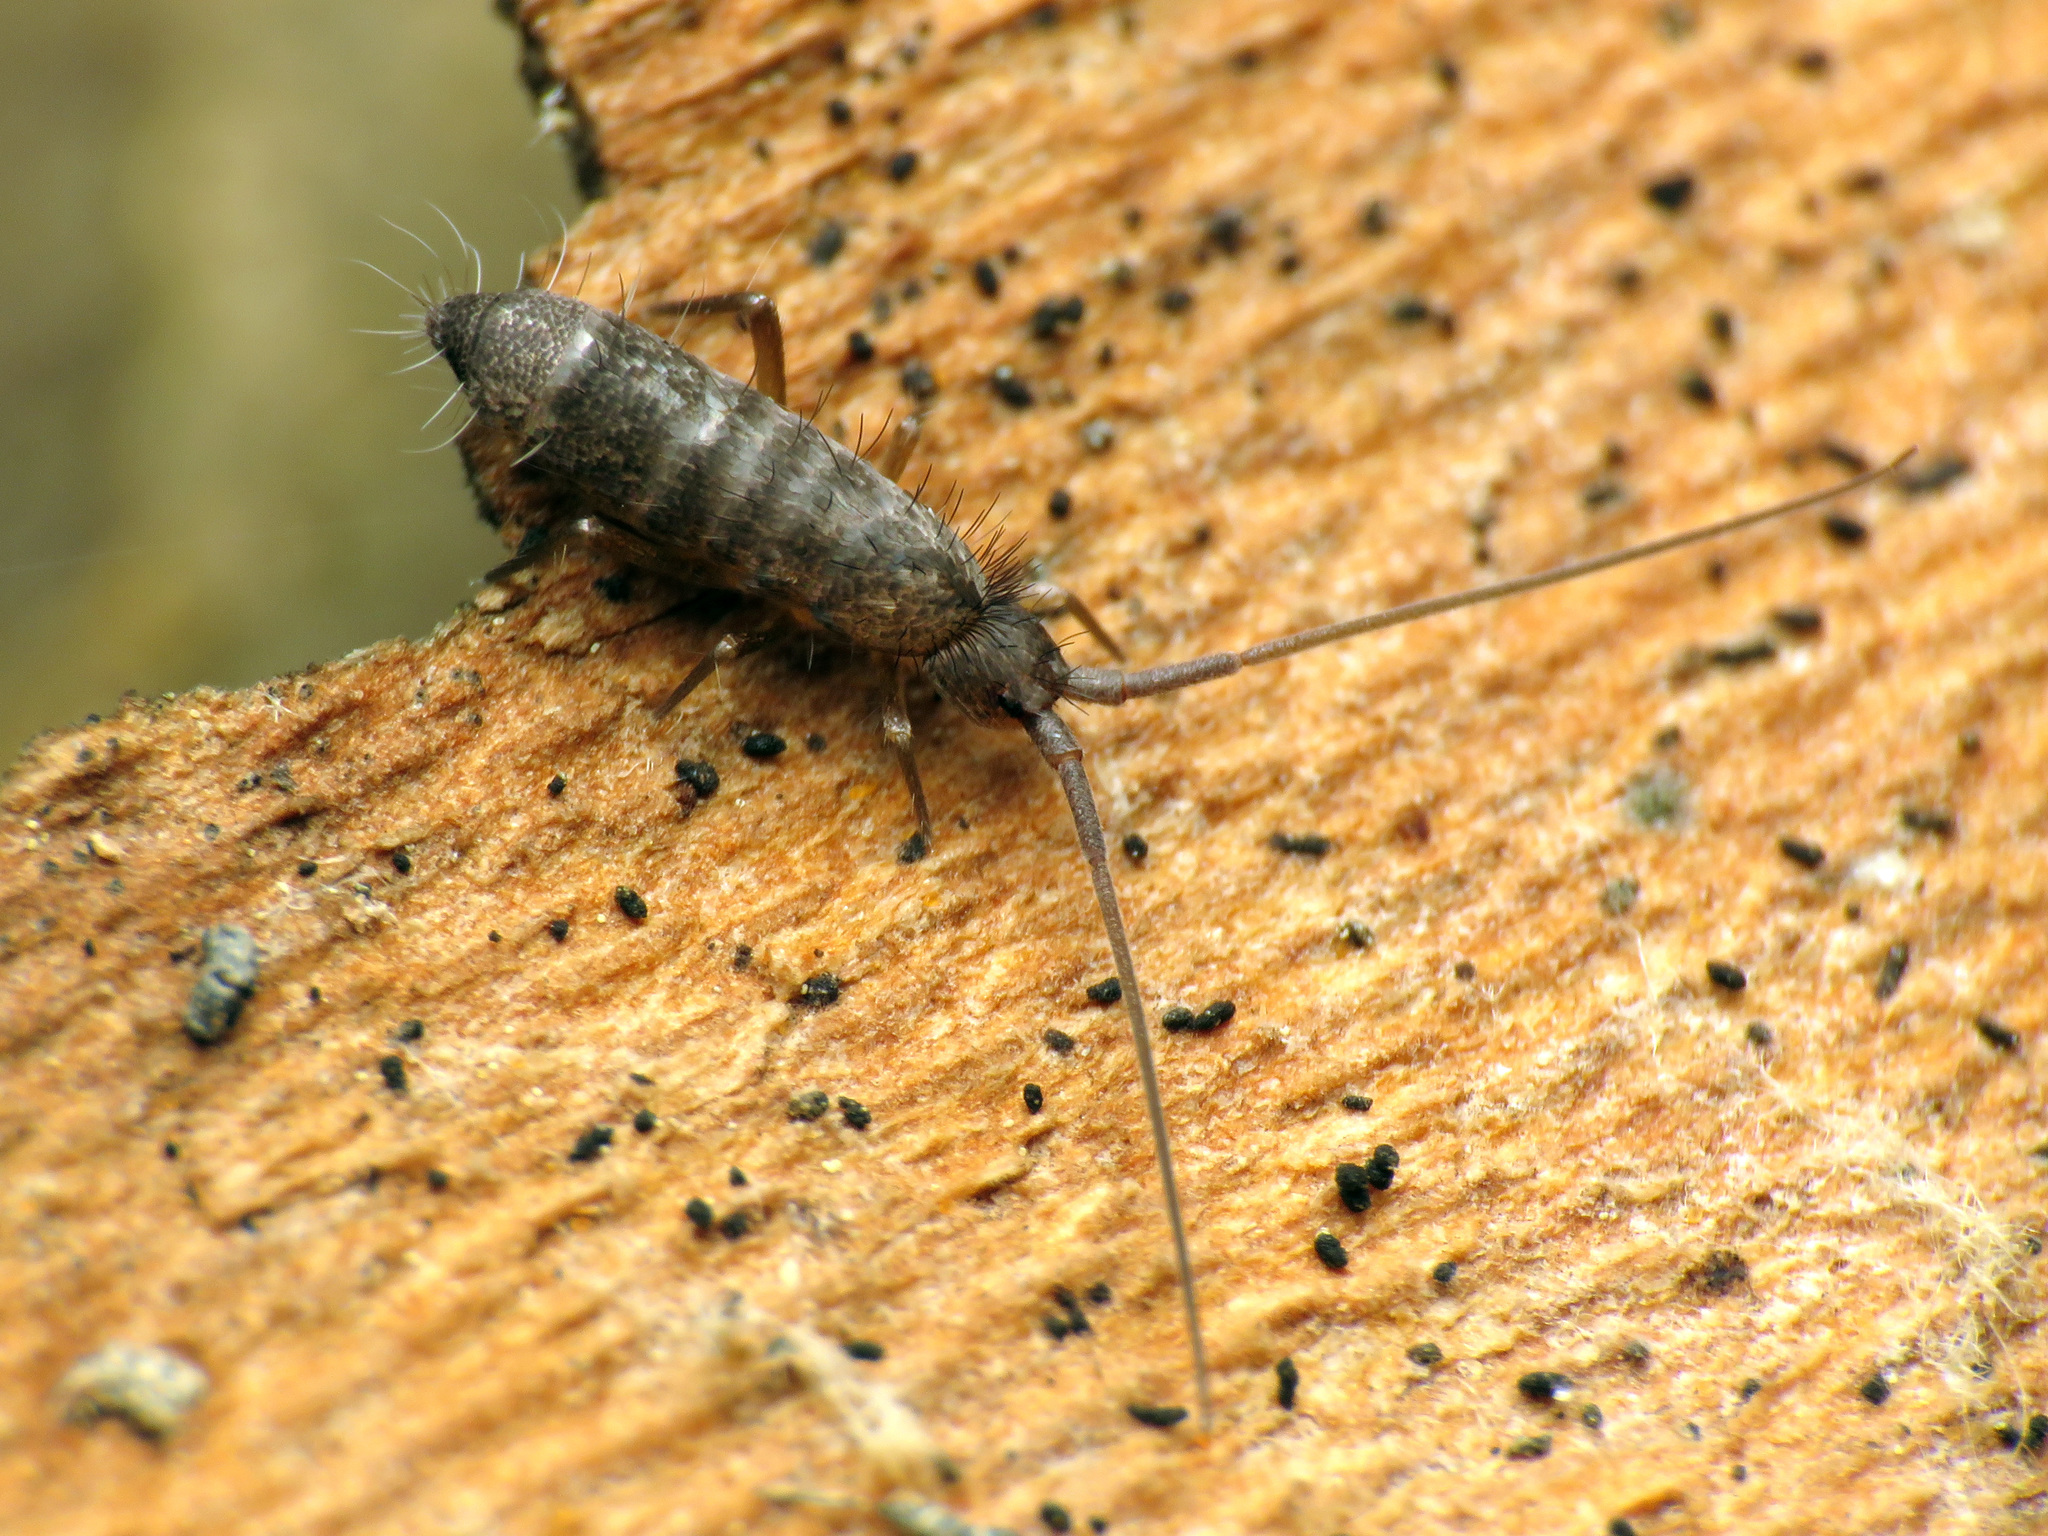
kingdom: Animalia
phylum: Arthropoda
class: Collembola
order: Entomobryomorpha
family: Tomoceridae
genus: Pogonognathellus
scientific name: Pogonognathellus dubius
